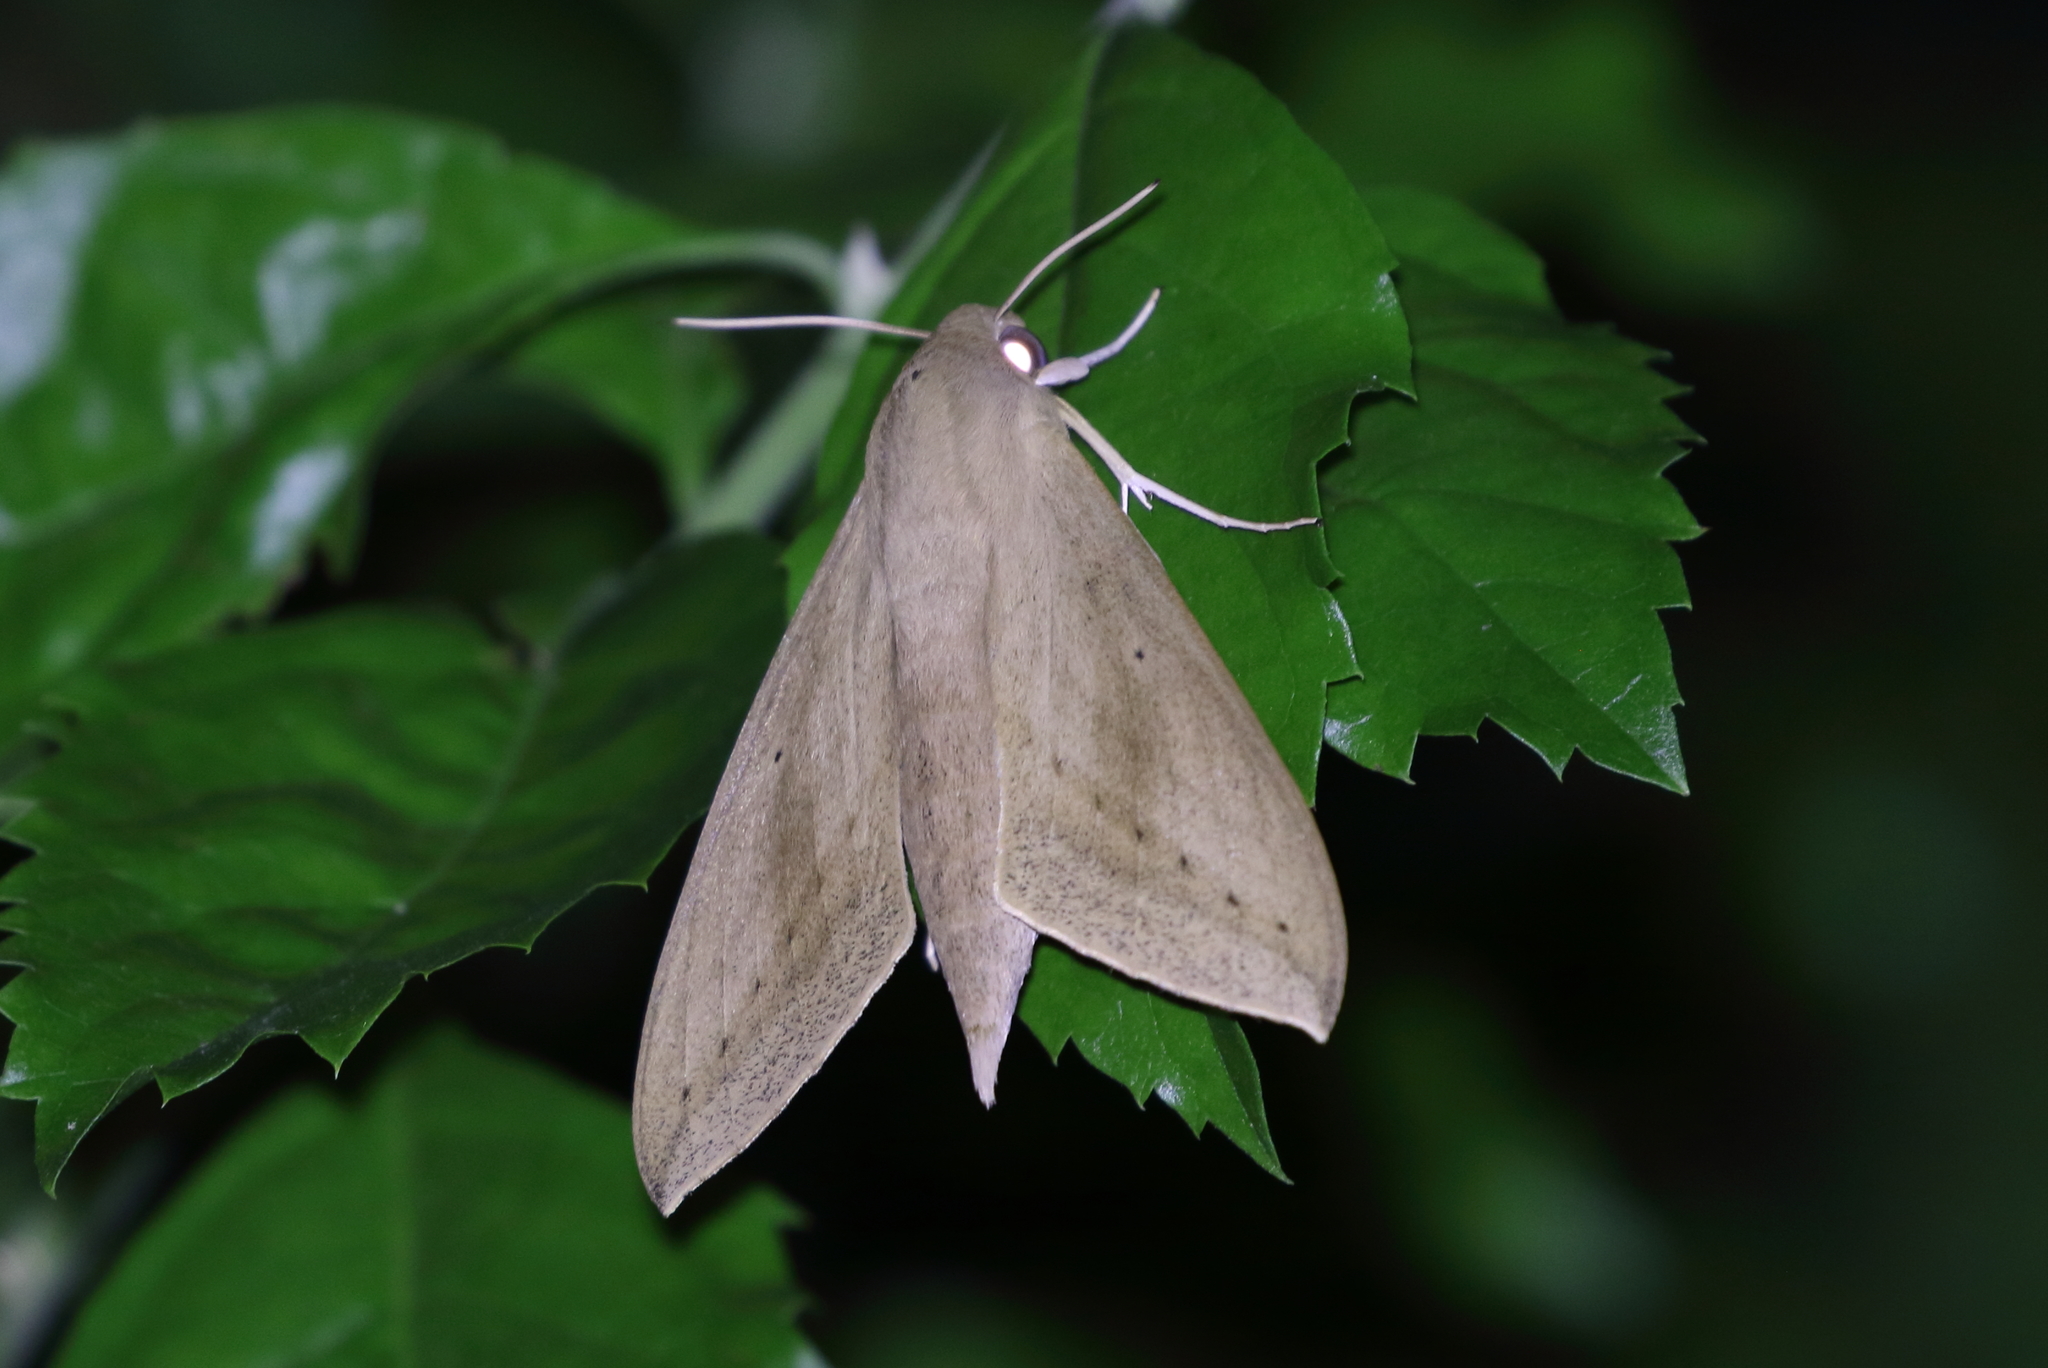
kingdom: Animalia
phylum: Arthropoda
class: Insecta
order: Lepidoptera
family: Sphingidae
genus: Theretra
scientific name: Theretra latreillii
